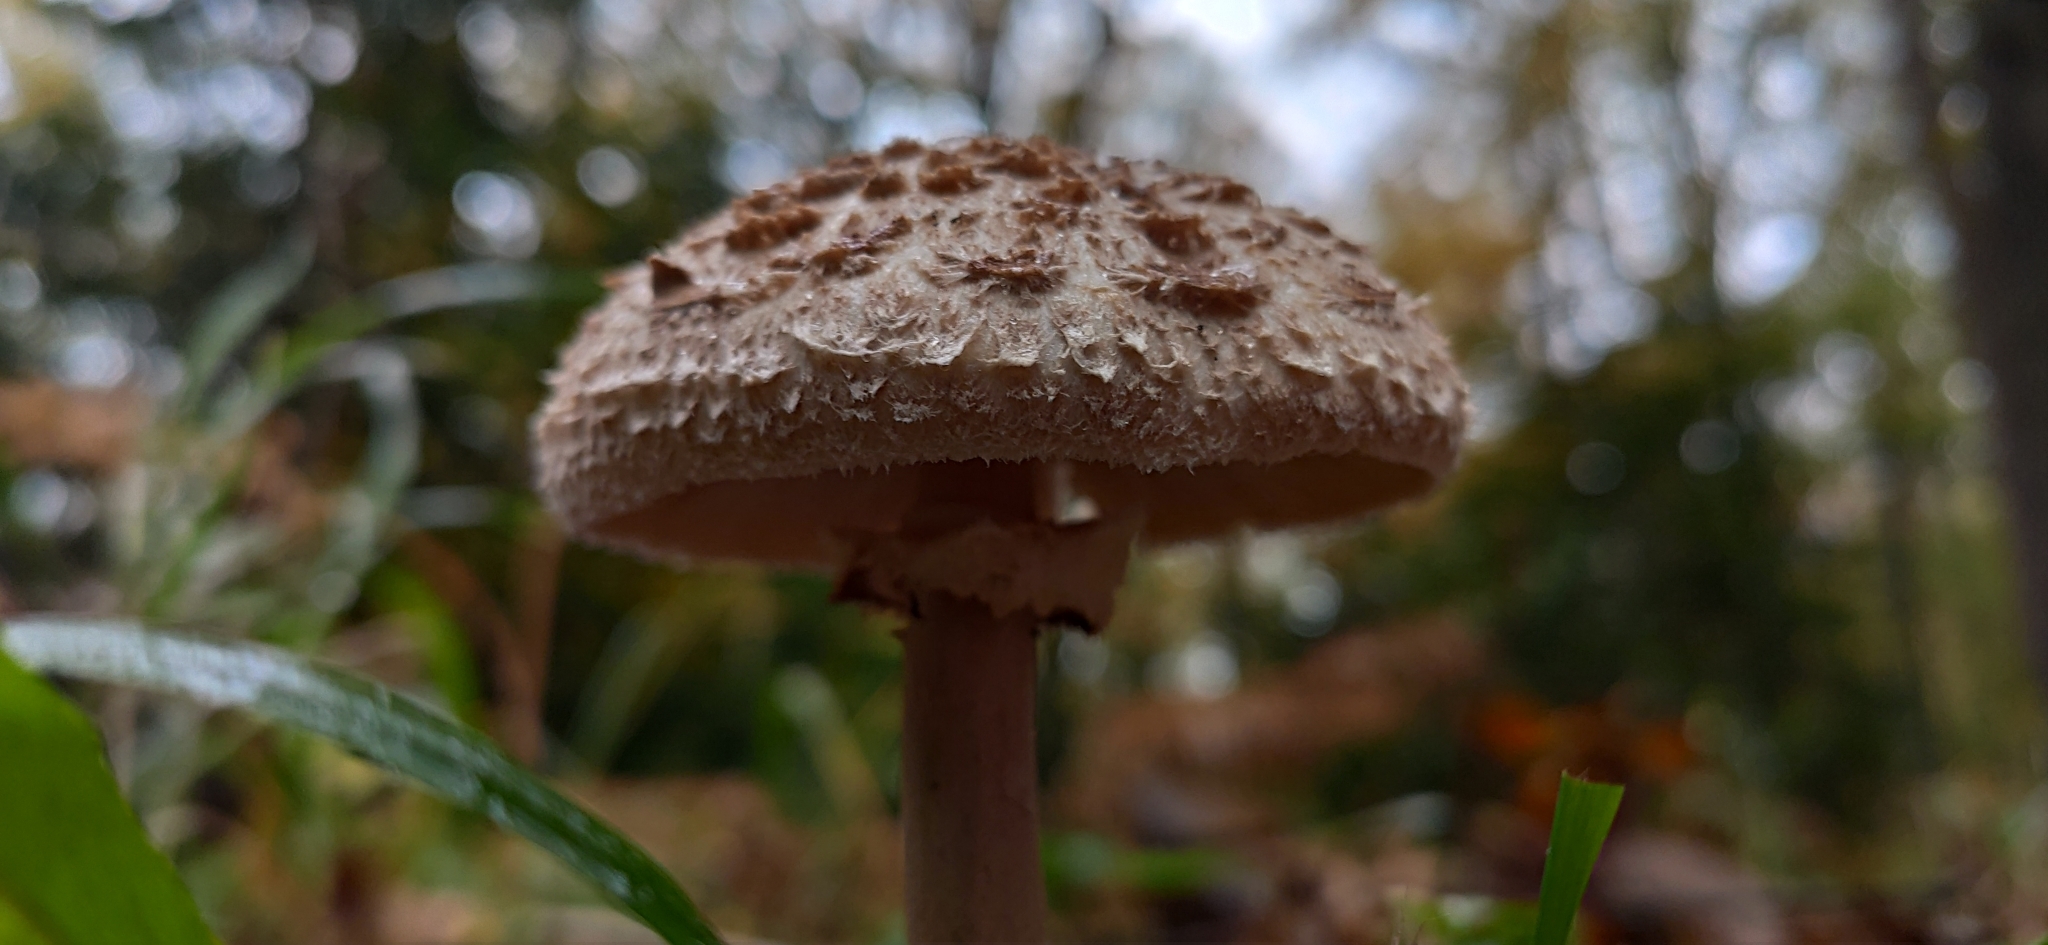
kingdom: Fungi
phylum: Basidiomycota
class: Agaricomycetes
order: Agaricales
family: Agaricaceae
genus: Macrolepiota
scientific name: Macrolepiota procera
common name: Parasol
